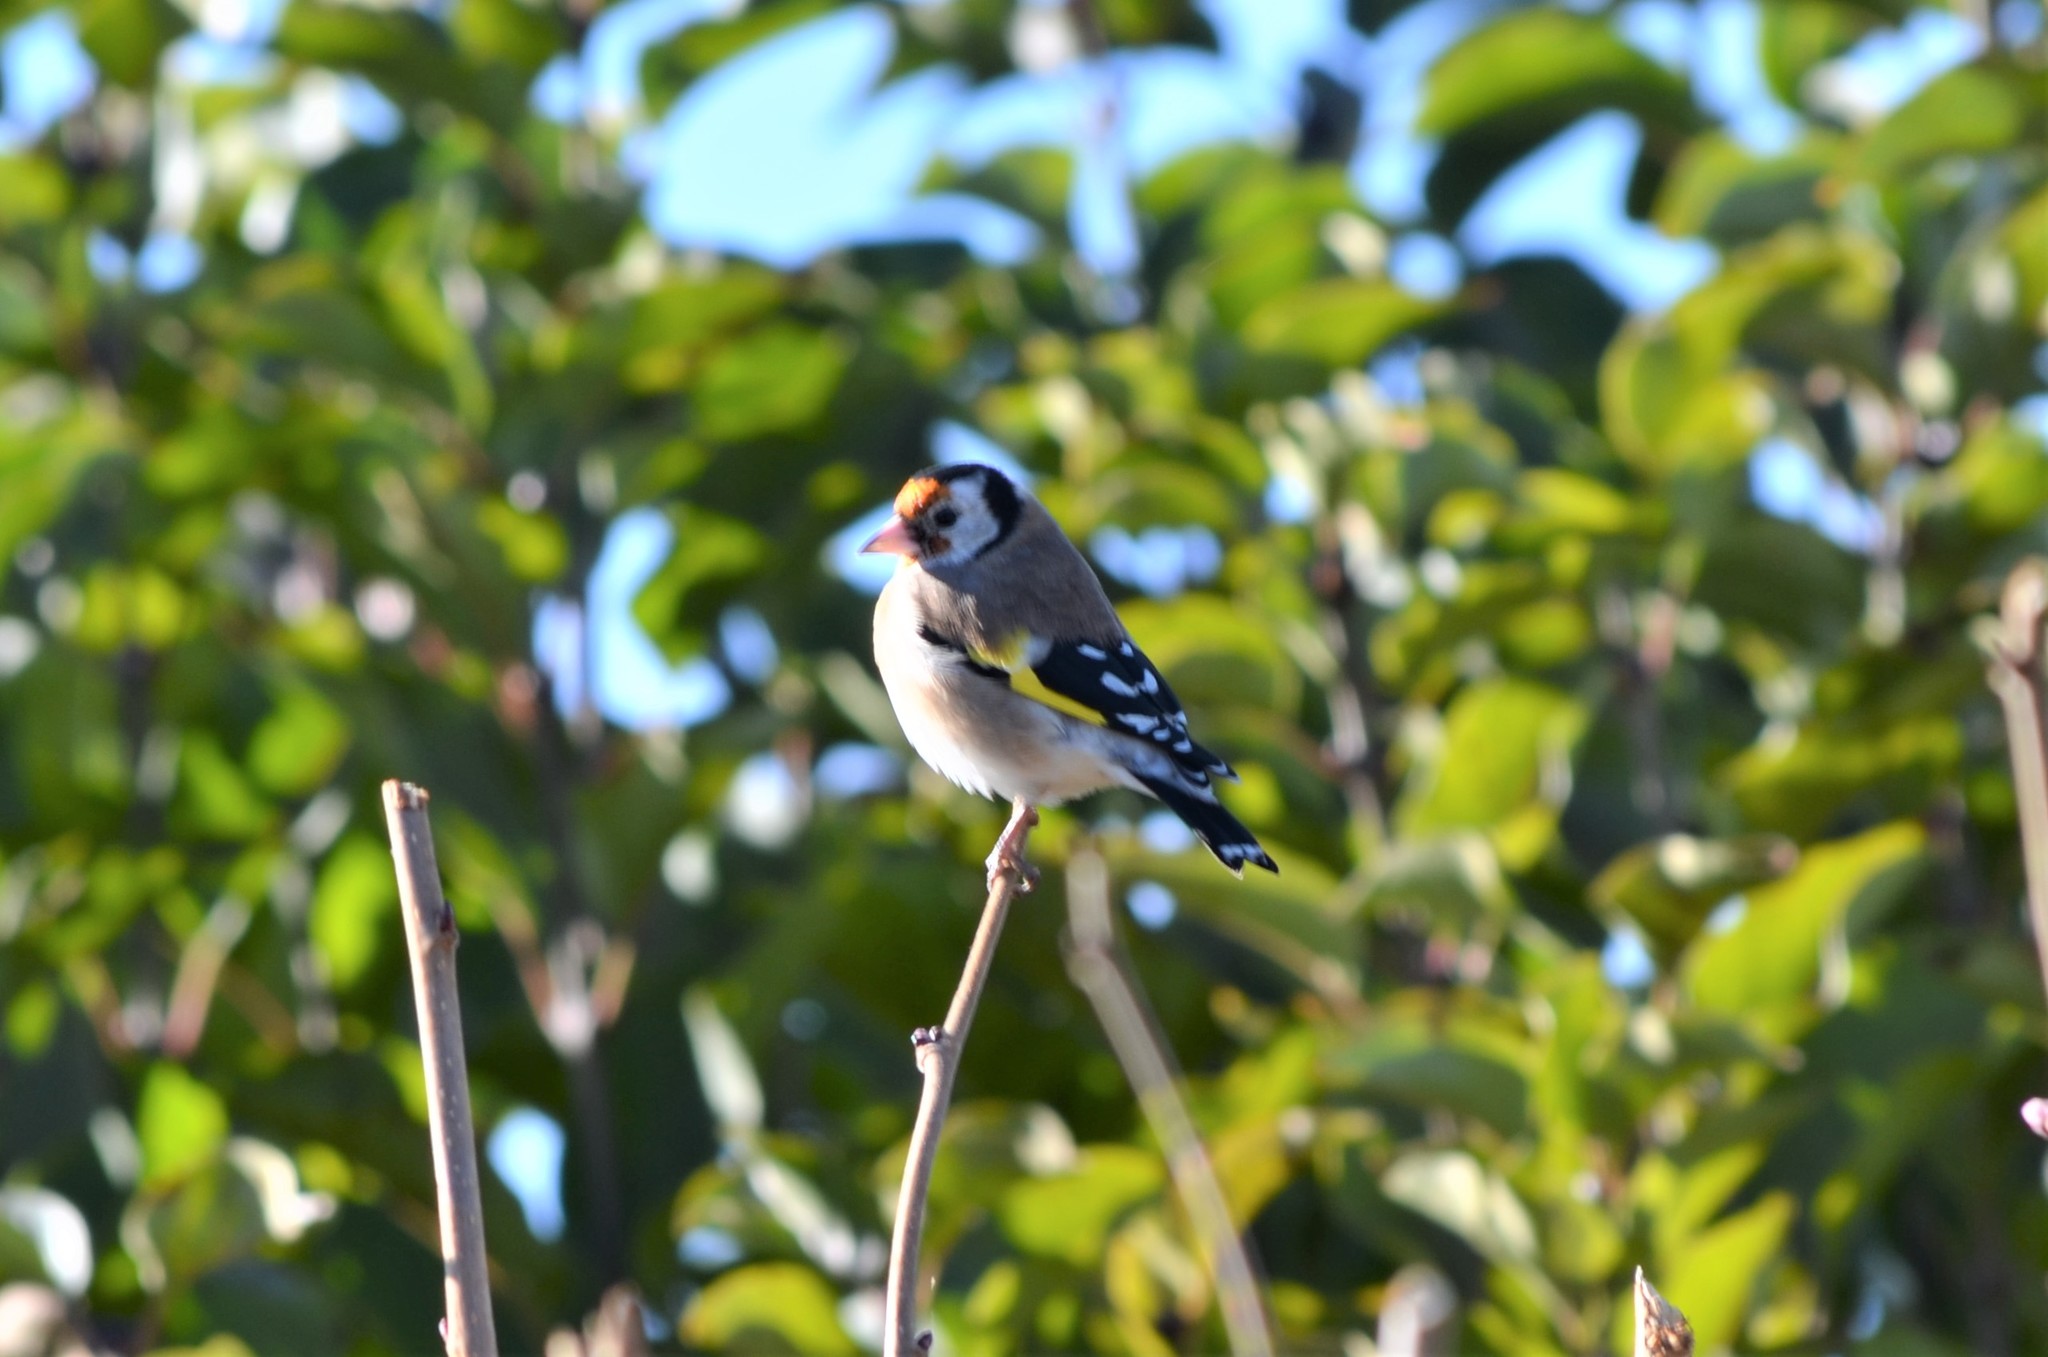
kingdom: Animalia
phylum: Chordata
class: Aves
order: Passeriformes
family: Fringillidae
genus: Carduelis
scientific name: Carduelis carduelis
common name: European goldfinch
